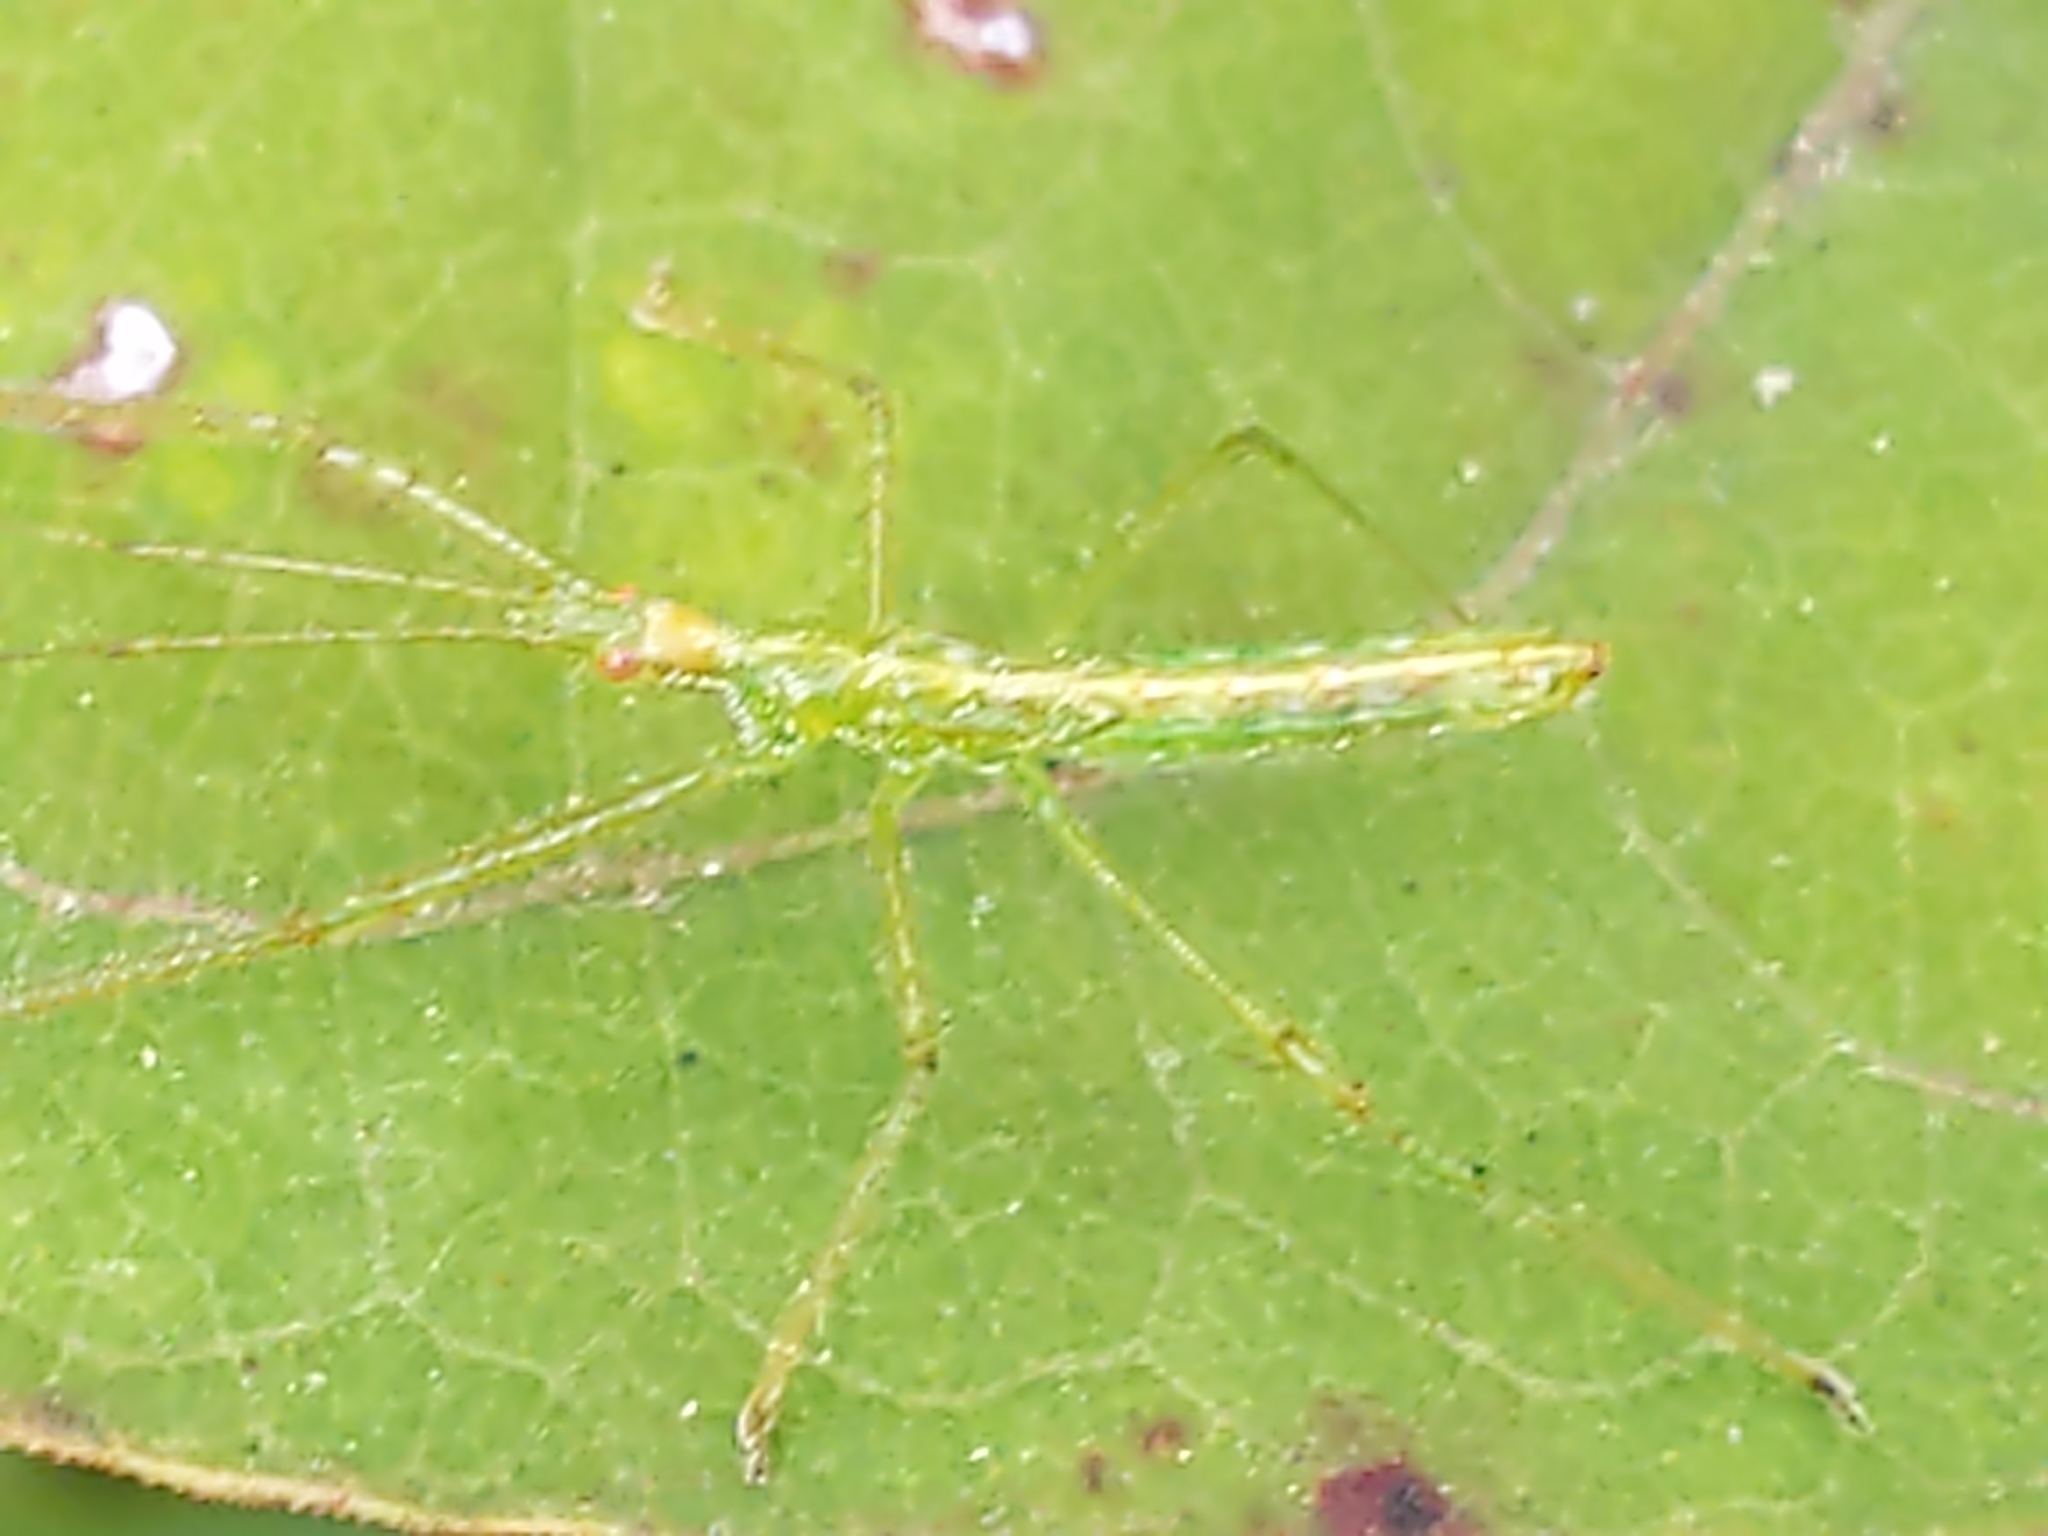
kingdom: Animalia
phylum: Arthropoda
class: Insecta
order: Hemiptera
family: Reduviidae
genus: Zelus
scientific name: Zelus luridus
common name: Pale green assassin bug
